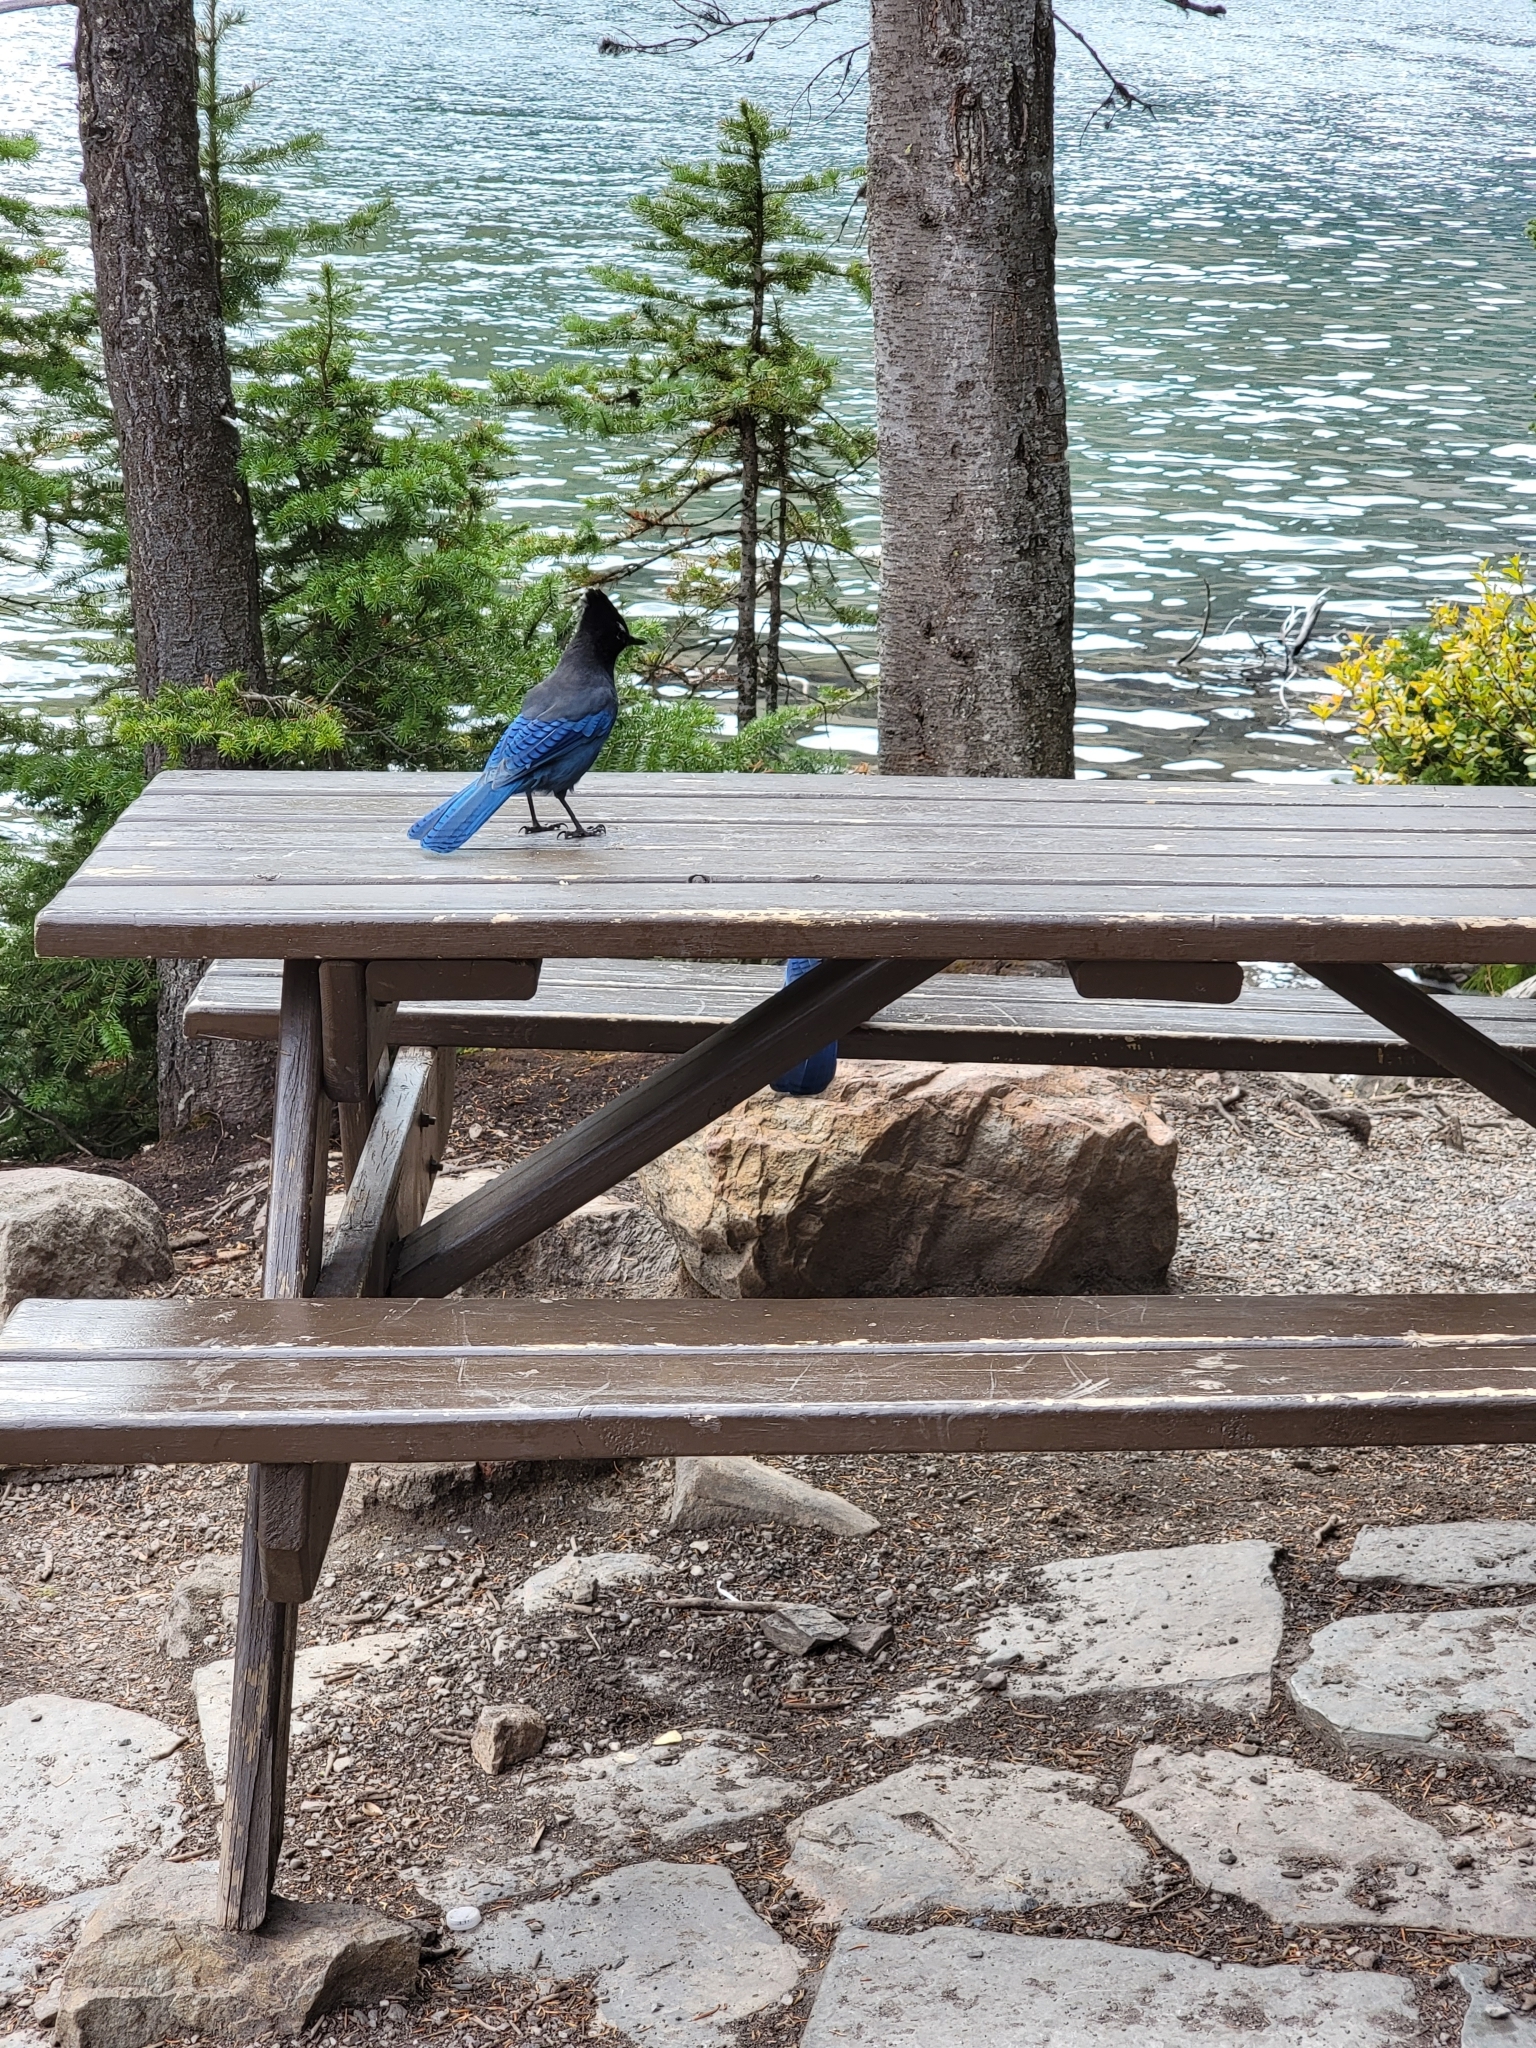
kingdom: Animalia
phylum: Chordata
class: Aves
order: Passeriformes
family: Corvidae
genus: Cyanocitta
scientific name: Cyanocitta stelleri
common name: Steller's jay
